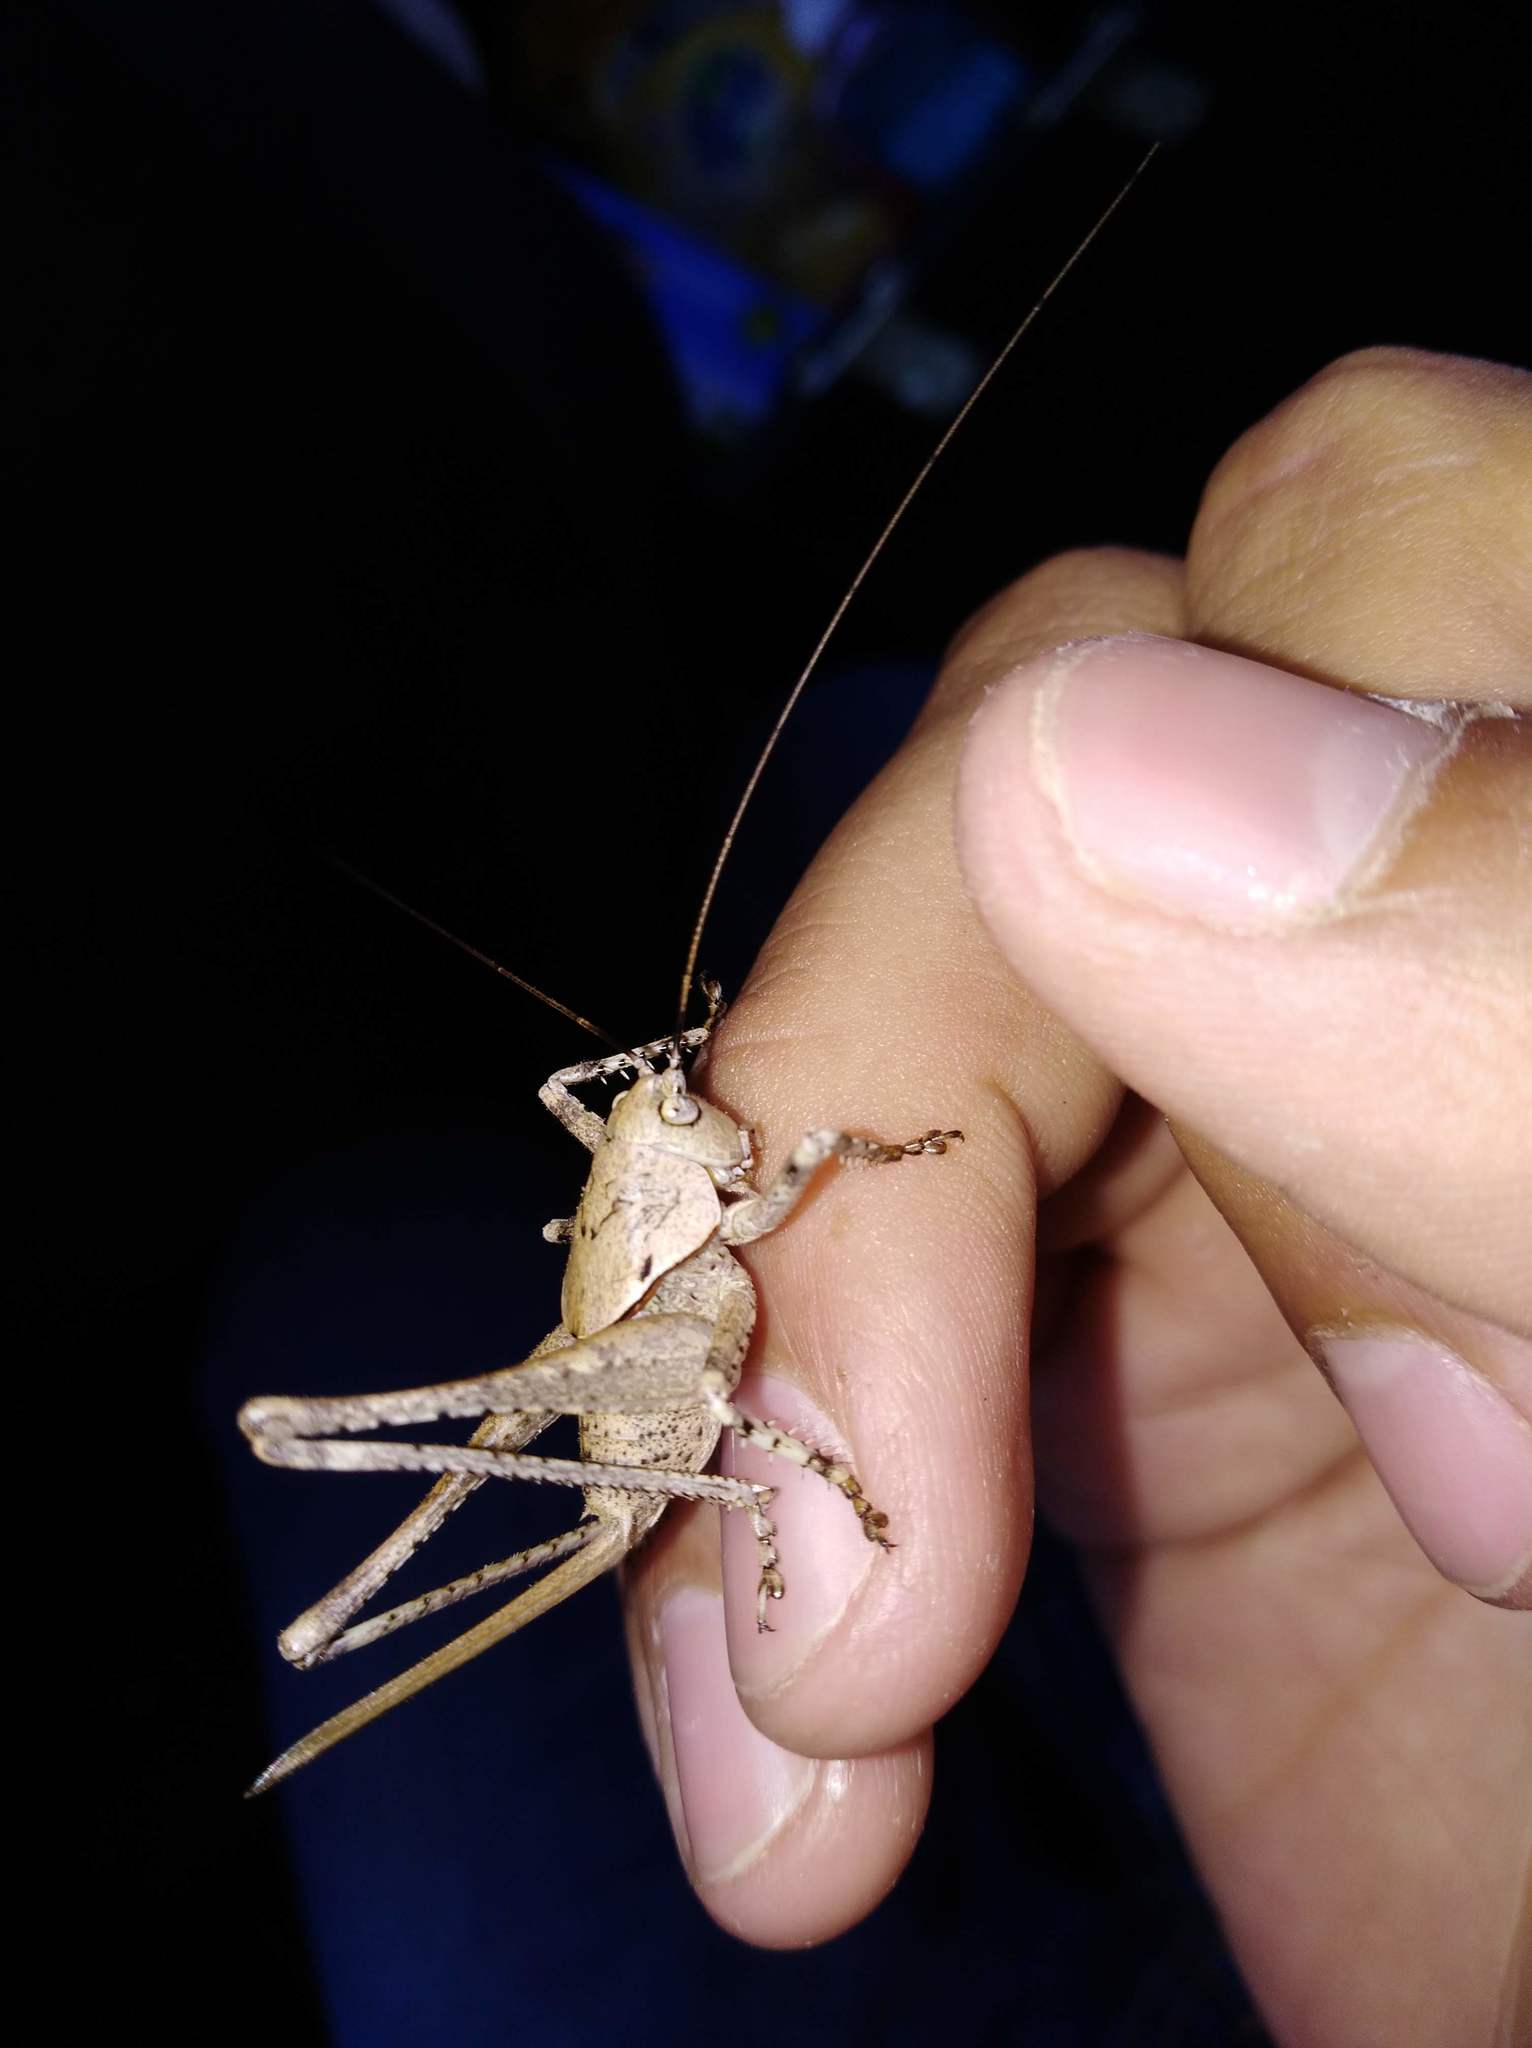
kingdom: Animalia
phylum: Arthropoda
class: Insecta
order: Orthoptera
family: Tettigoniidae
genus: Thyreonotus
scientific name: Thyreonotus bidens
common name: Two-toothed bush-cricket
